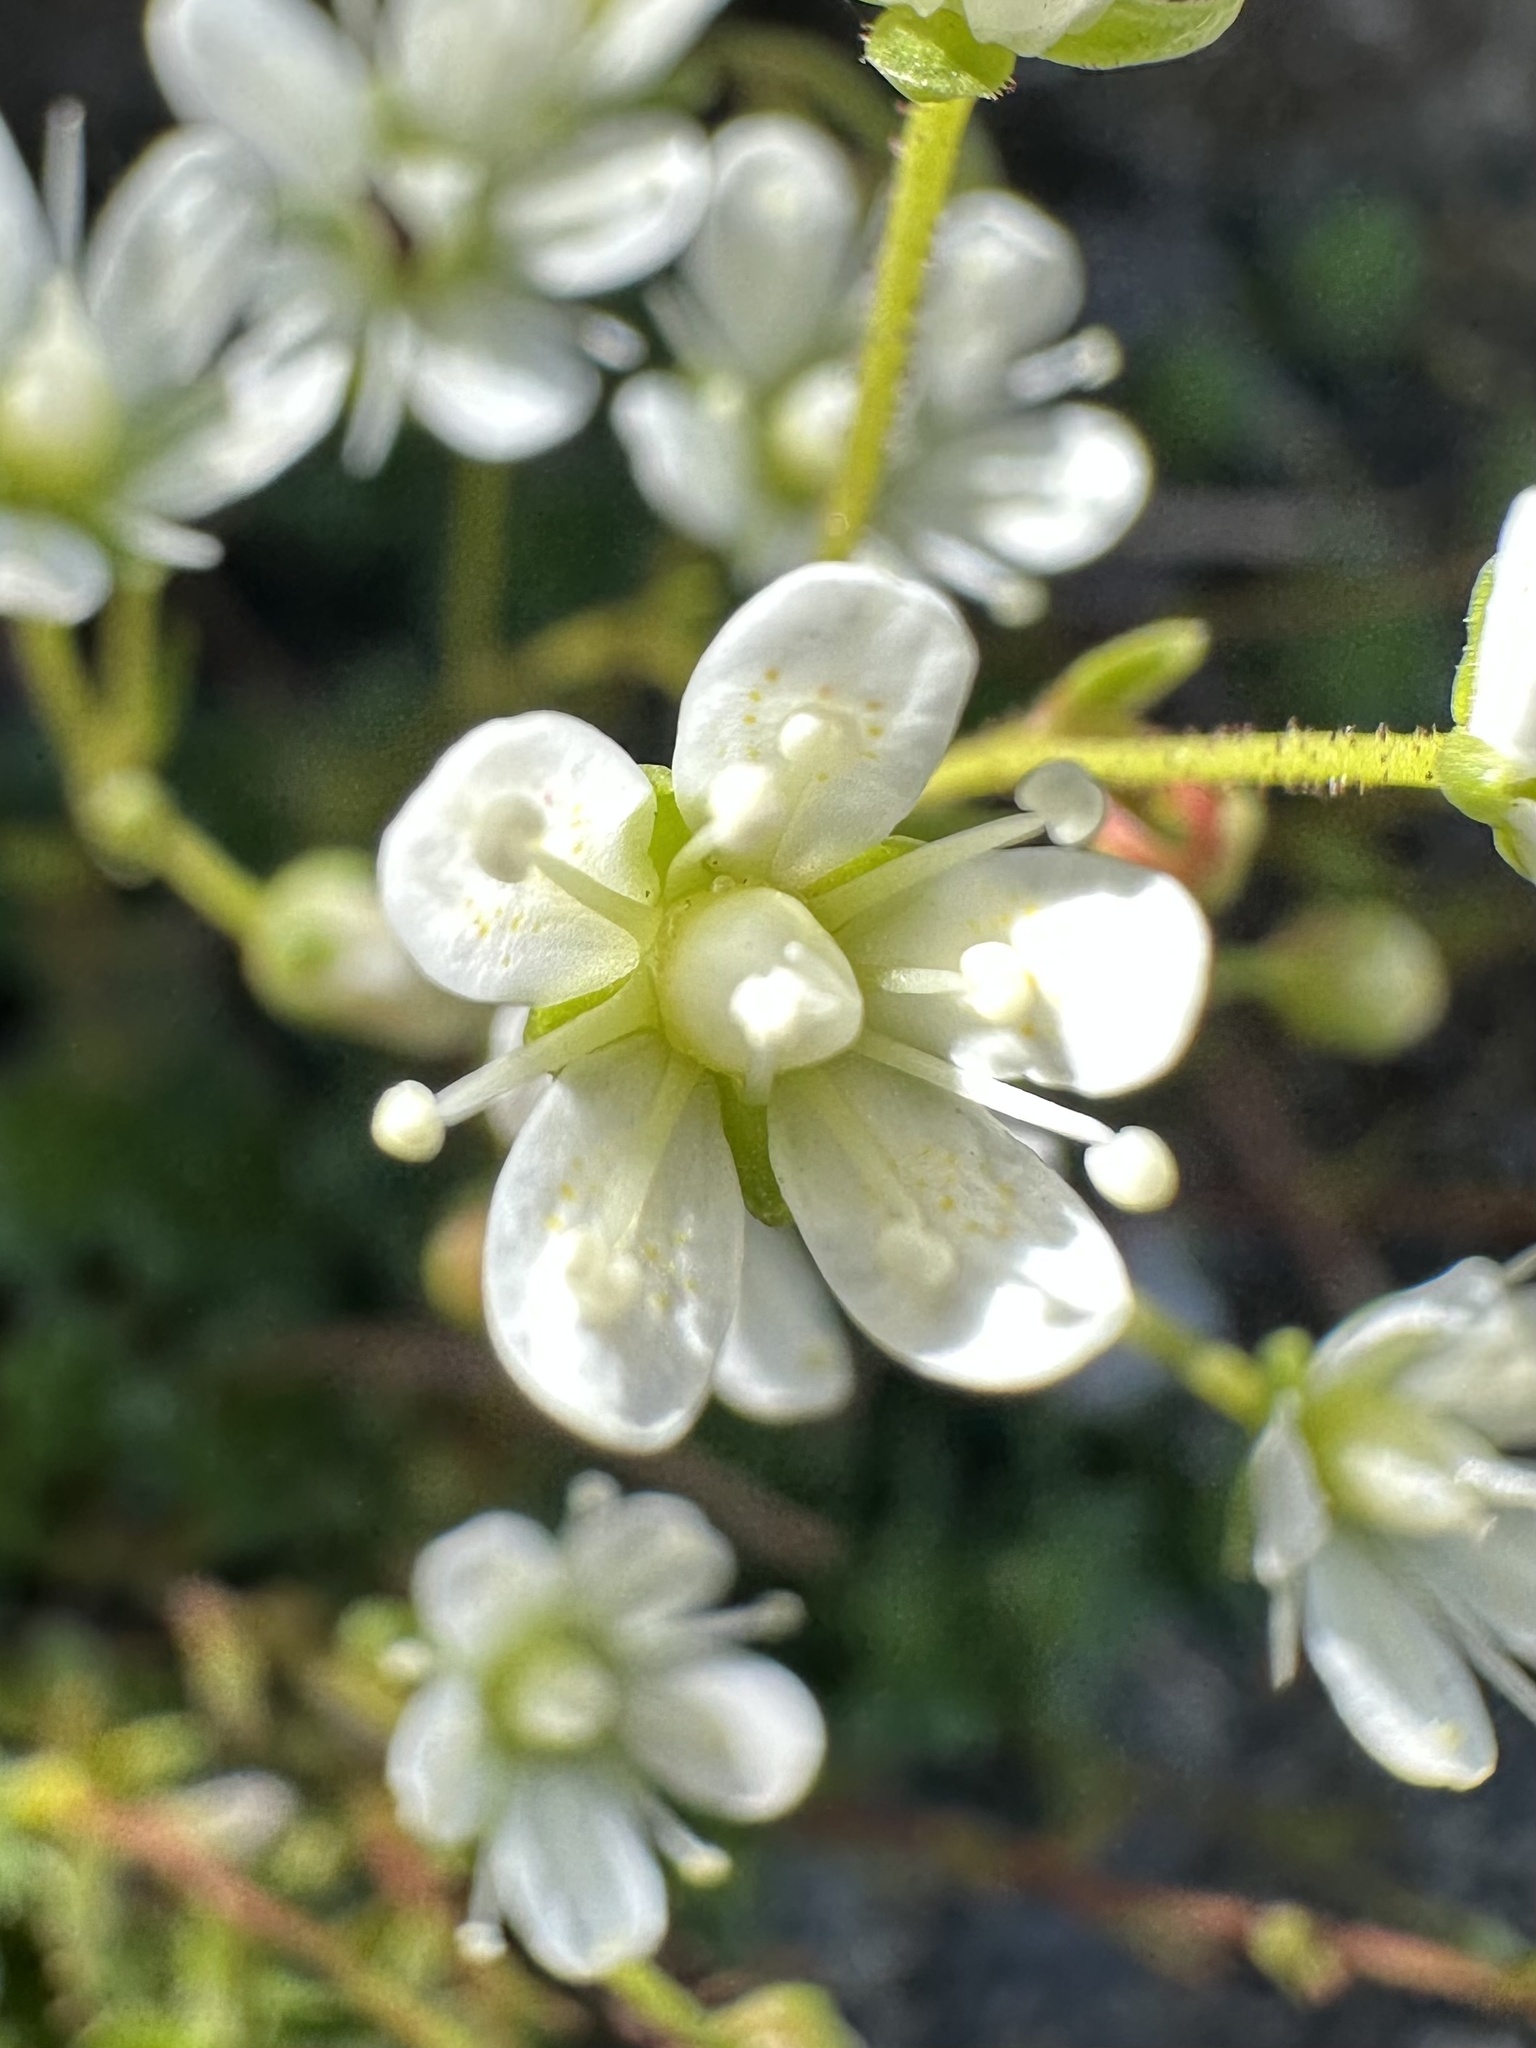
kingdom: Plantae
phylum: Tracheophyta
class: Magnoliopsida
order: Saxifragales
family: Saxifragaceae
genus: Saxifraga
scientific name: Saxifraga bronchialis
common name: Matted saxifrage
